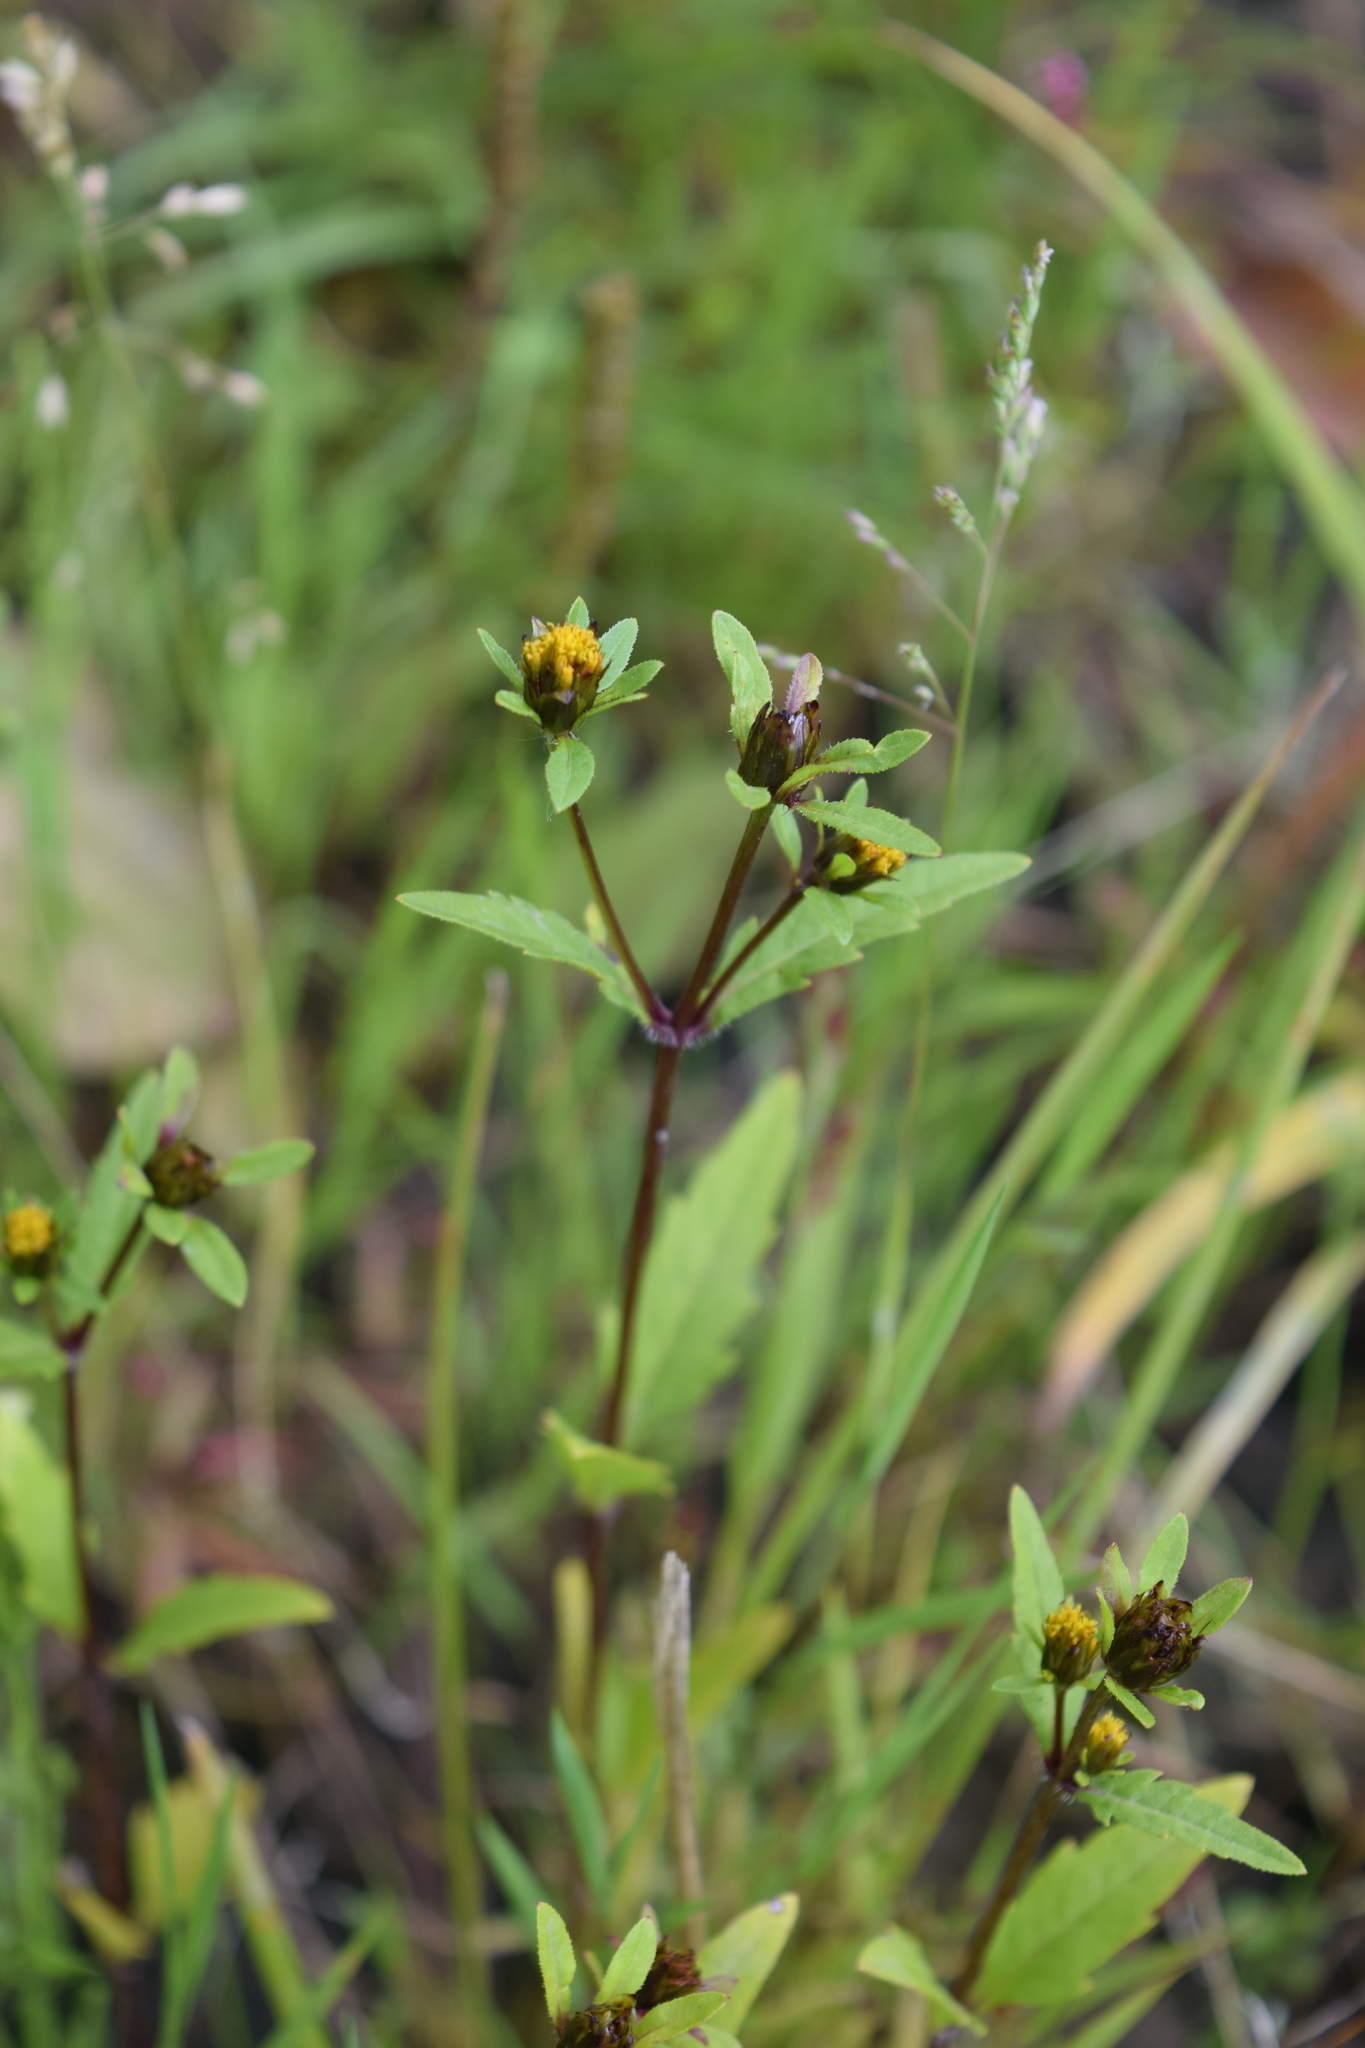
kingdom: Plantae
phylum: Tracheophyta
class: Magnoliopsida
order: Asterales
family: Asteraceae
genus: Bidens
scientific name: Bidens tripartita
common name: Trifid bur-marigold
